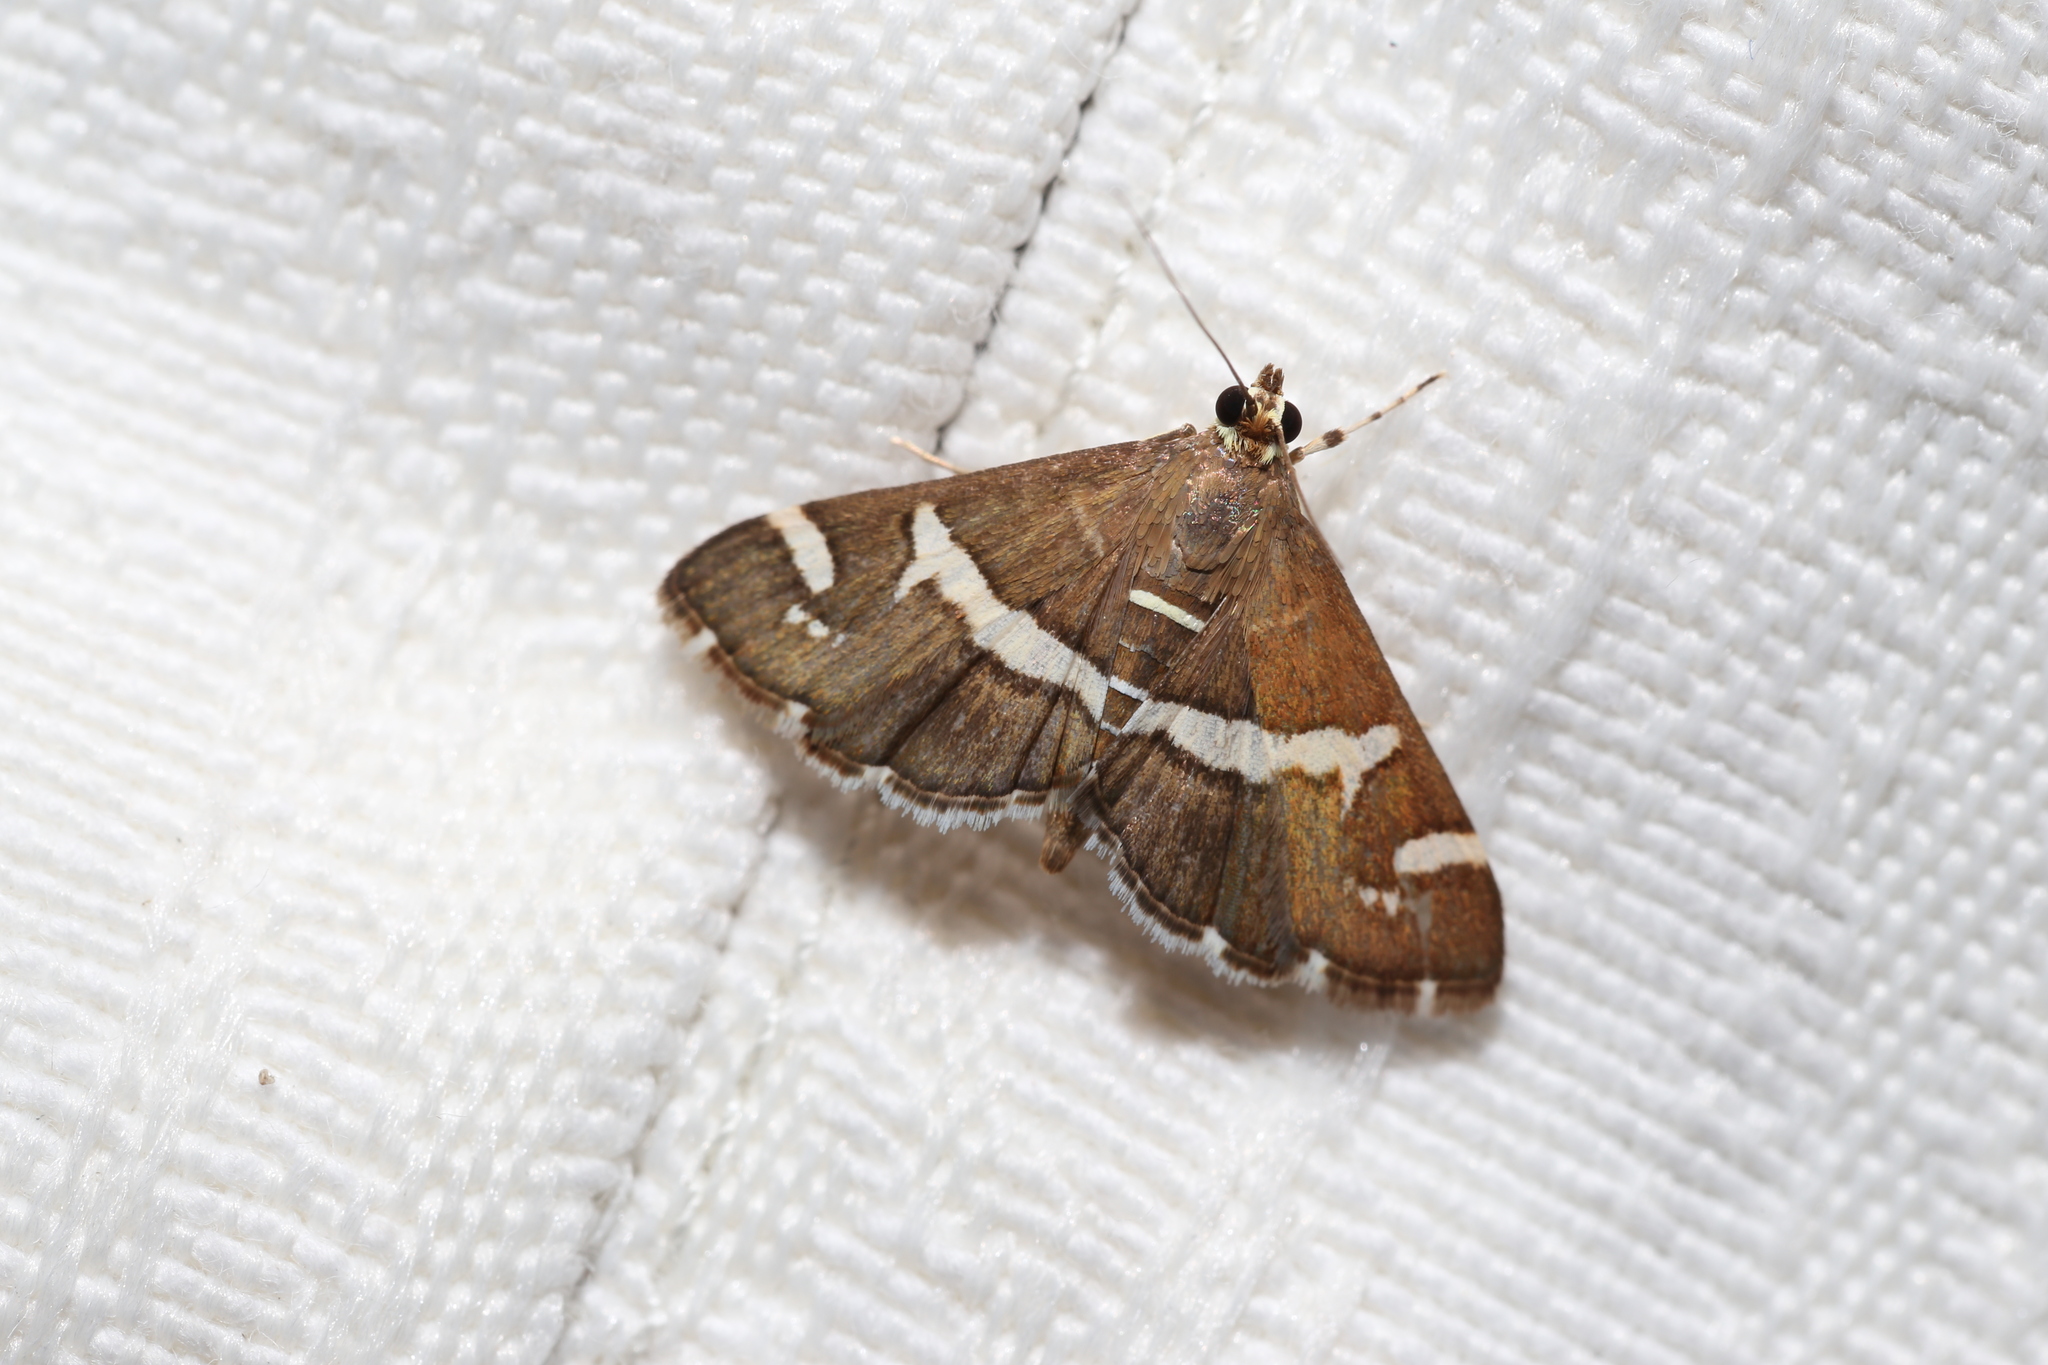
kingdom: Animalia
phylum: Arthropoda
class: Insecta
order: Lepidoptera
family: Crambidae
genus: Spoladea
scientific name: Spoladea recurvalis
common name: Beet webworm moth
